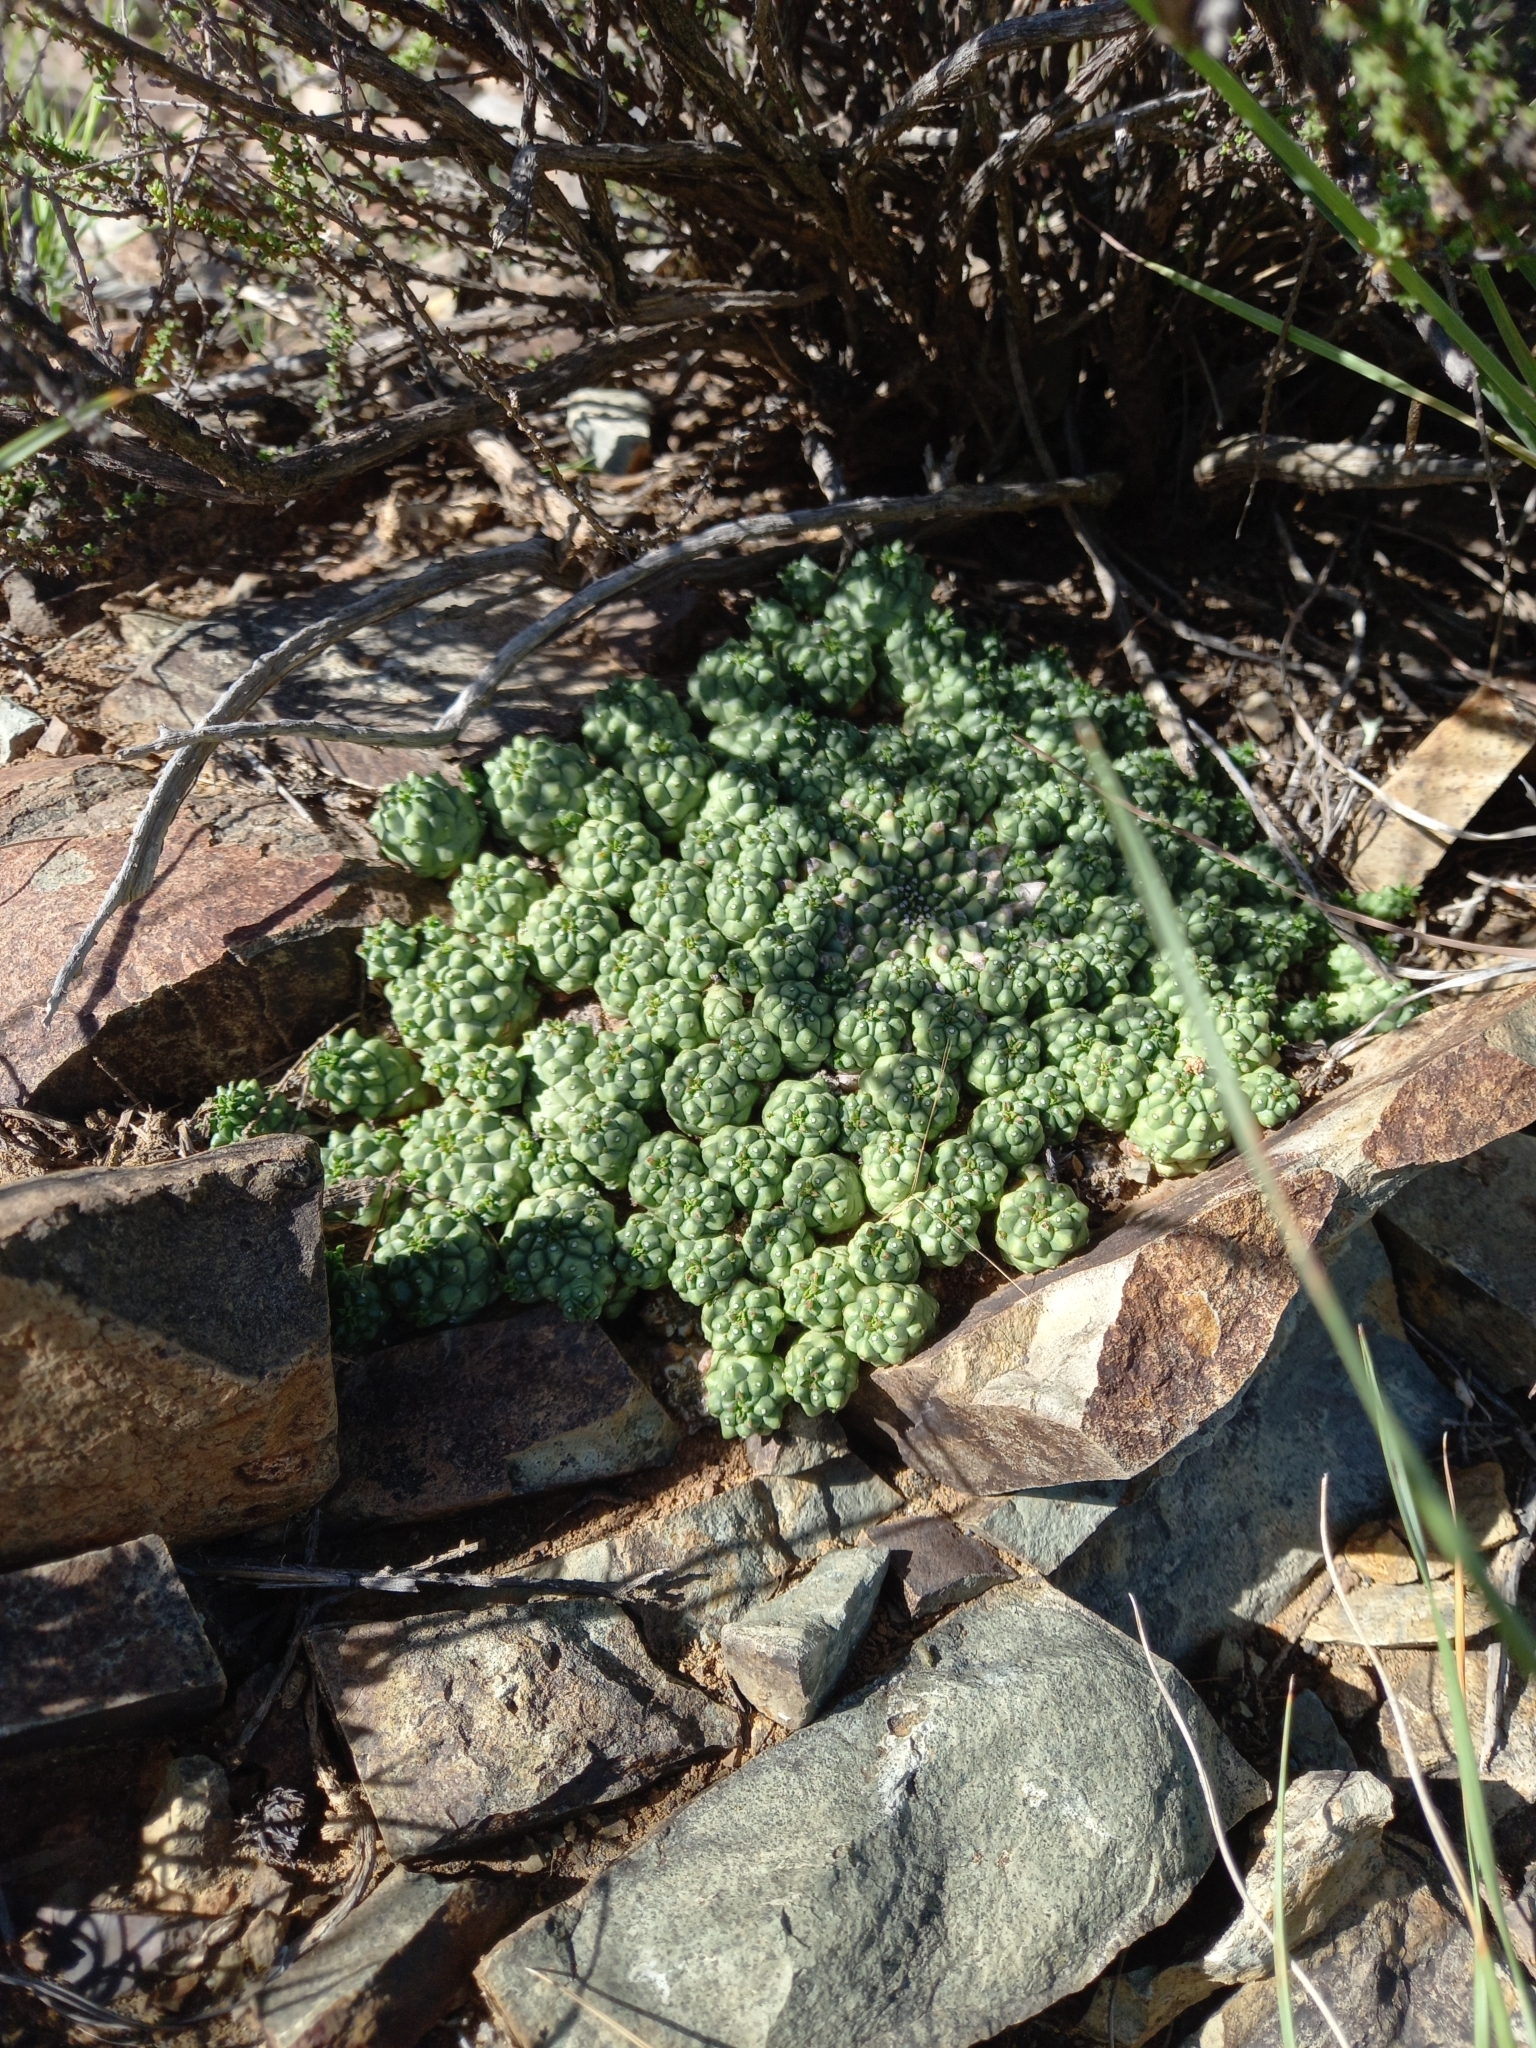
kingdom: Plantae
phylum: Tracheophyta
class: Magnoliopsida
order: Malpighiales
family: Euphorbiaceae
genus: Euphorbia
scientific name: Euphorbia clavarioides
